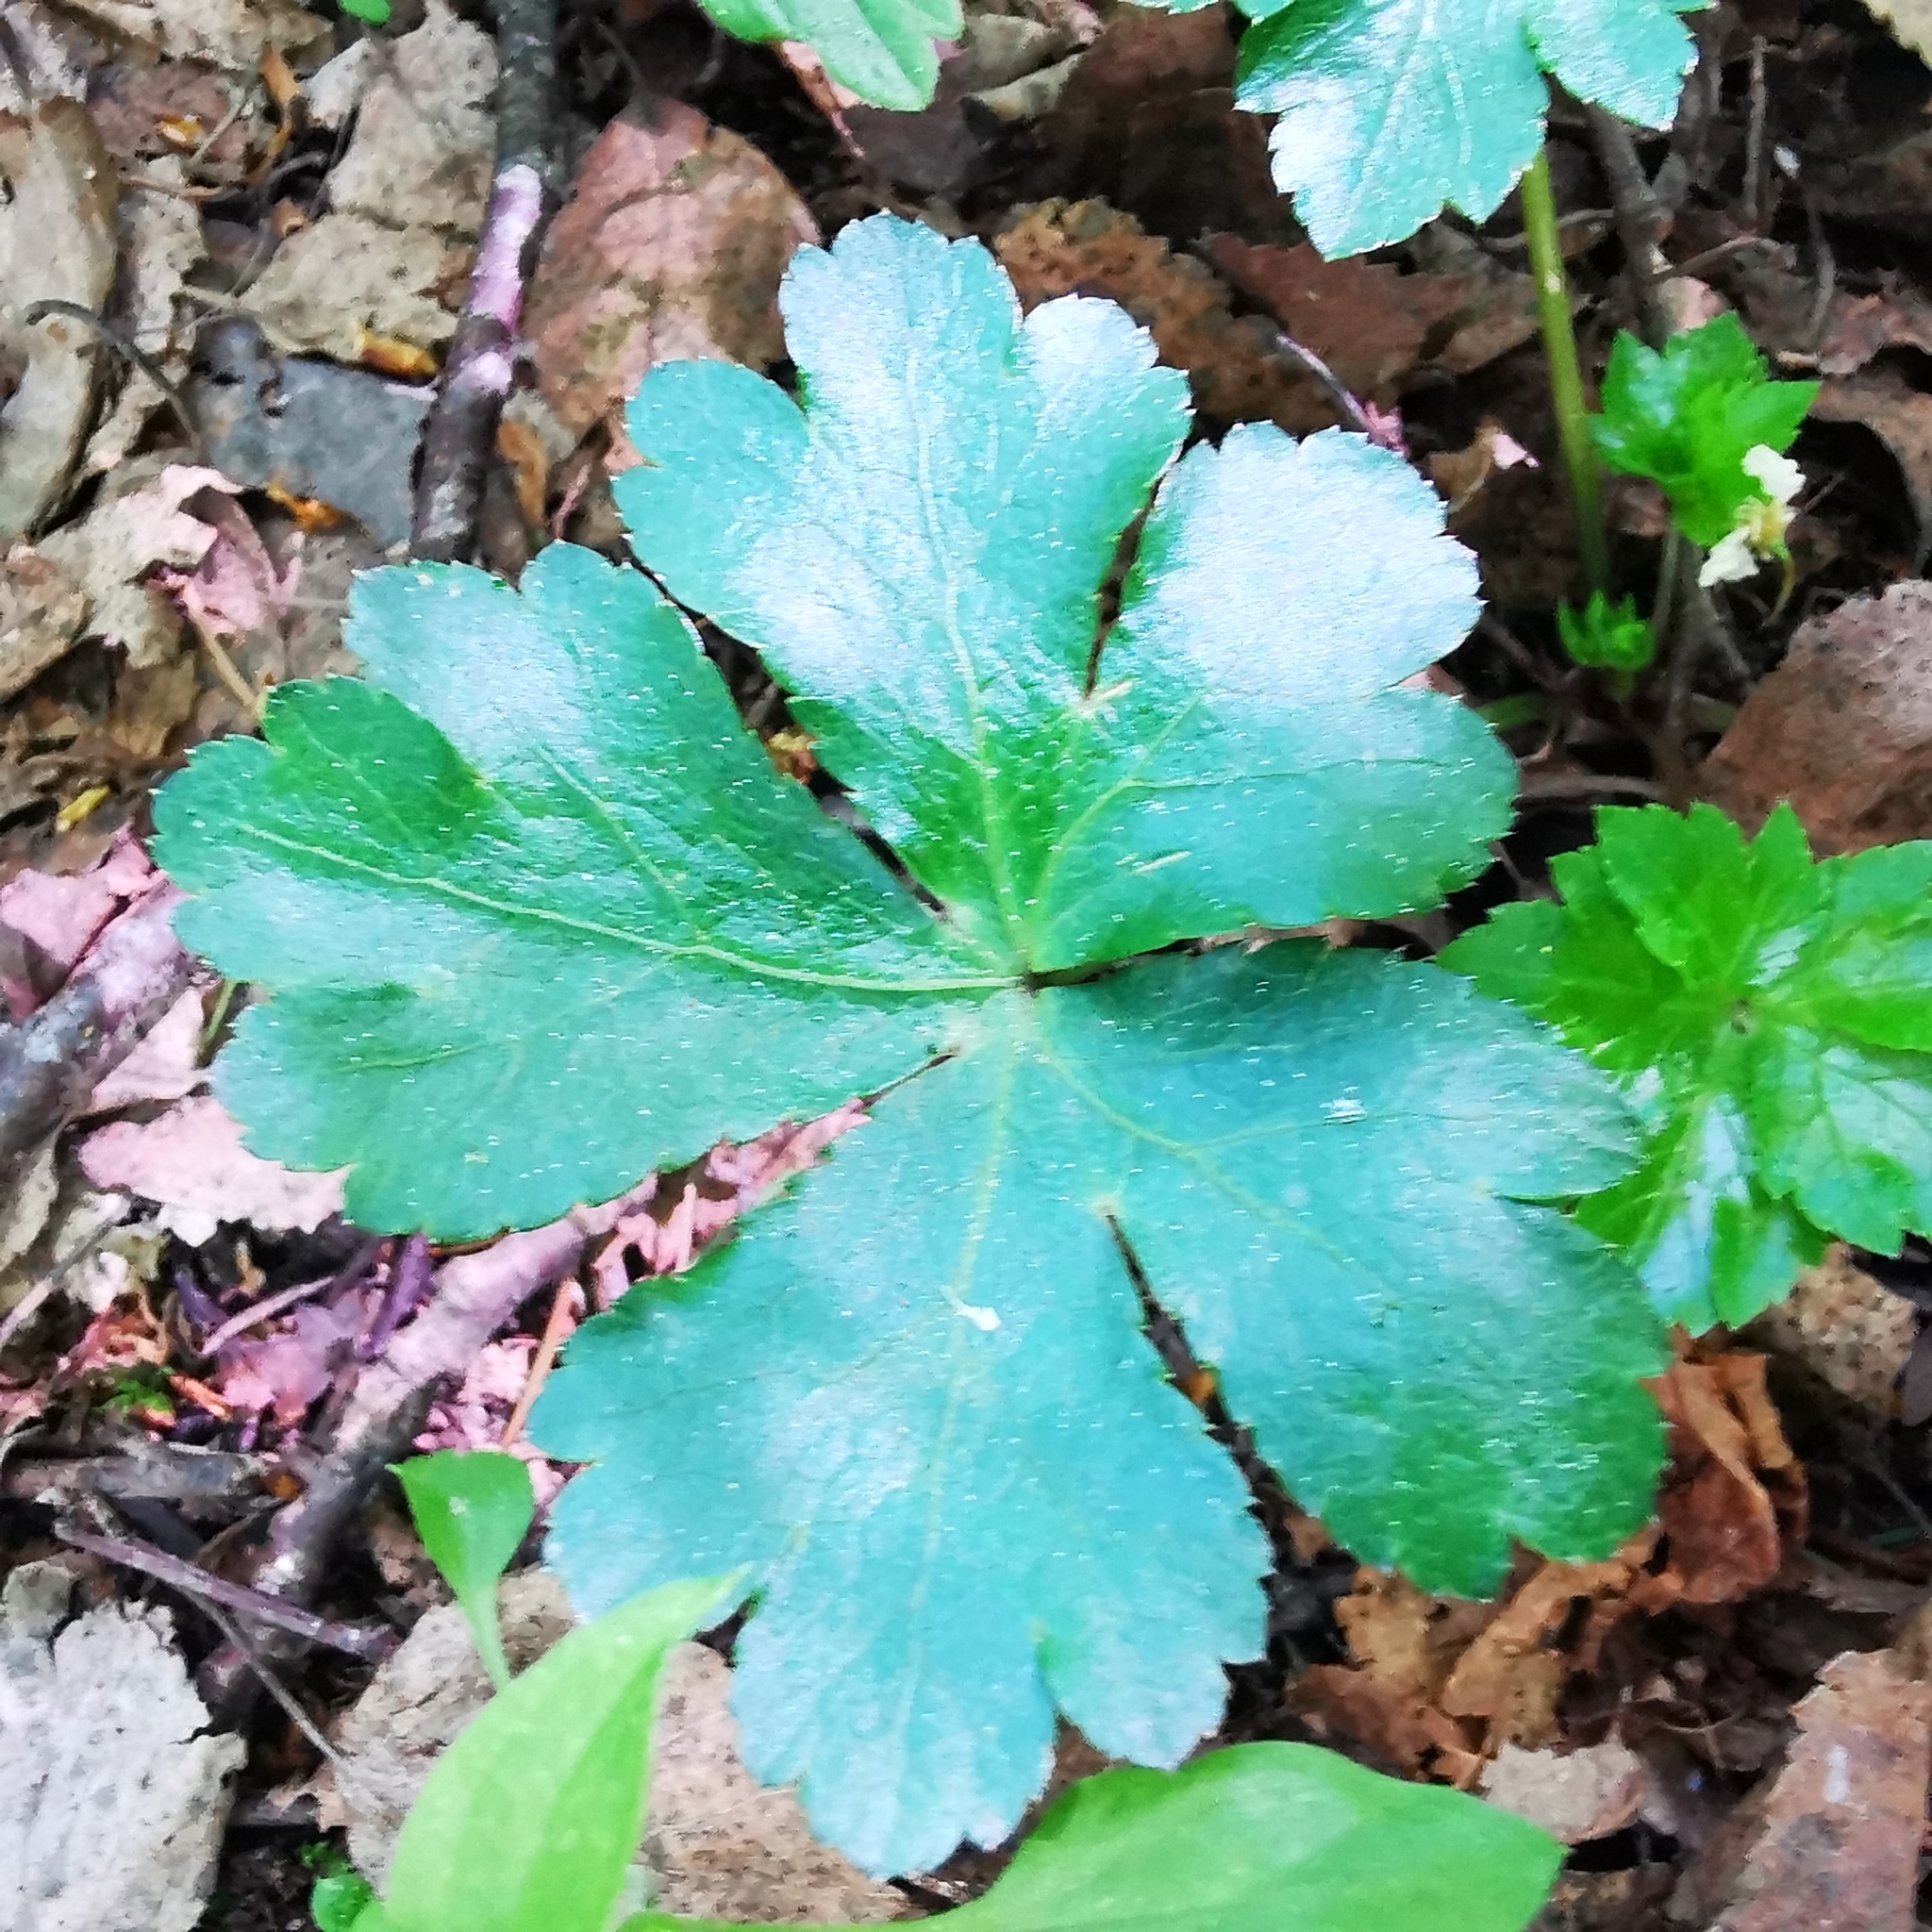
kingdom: Plantae
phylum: Tracheophyta
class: Magnoliopsida
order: Apiales
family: Apiaceae
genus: Sanicula
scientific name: Sanicula europaea
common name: Sanicle
